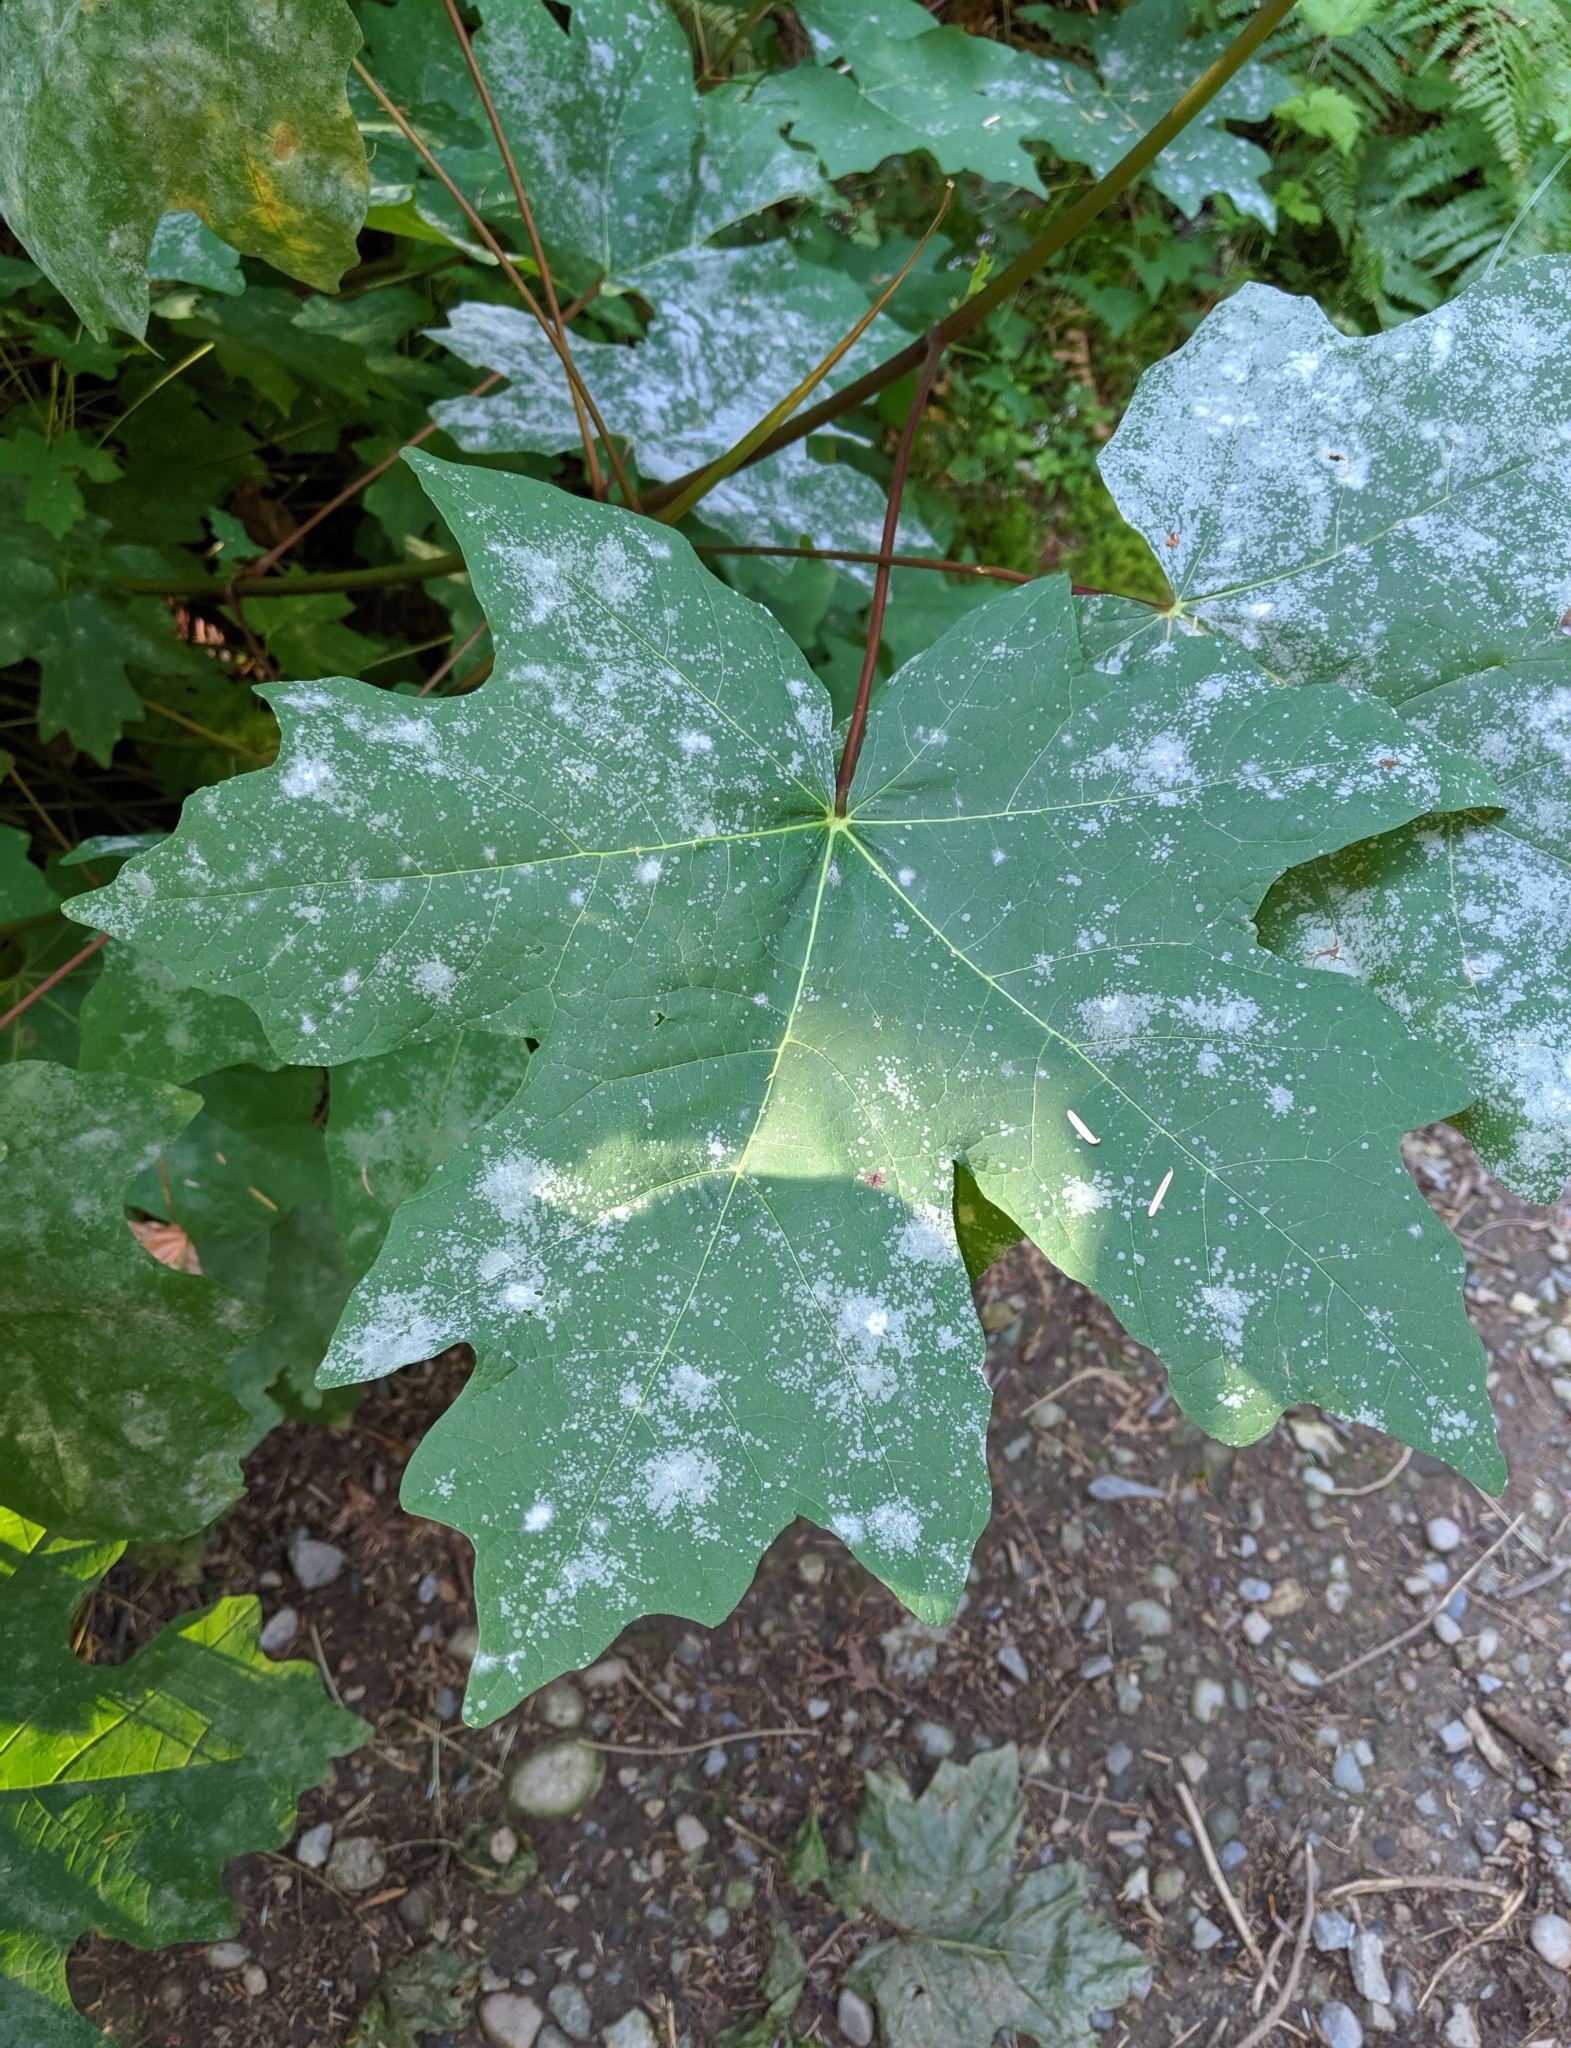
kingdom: Plantae
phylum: Tracheophyta
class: Magnoliopsida
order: Sapindales
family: Sapindaceae
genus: Acer
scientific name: Acer macrophyllum
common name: Oregon maple
